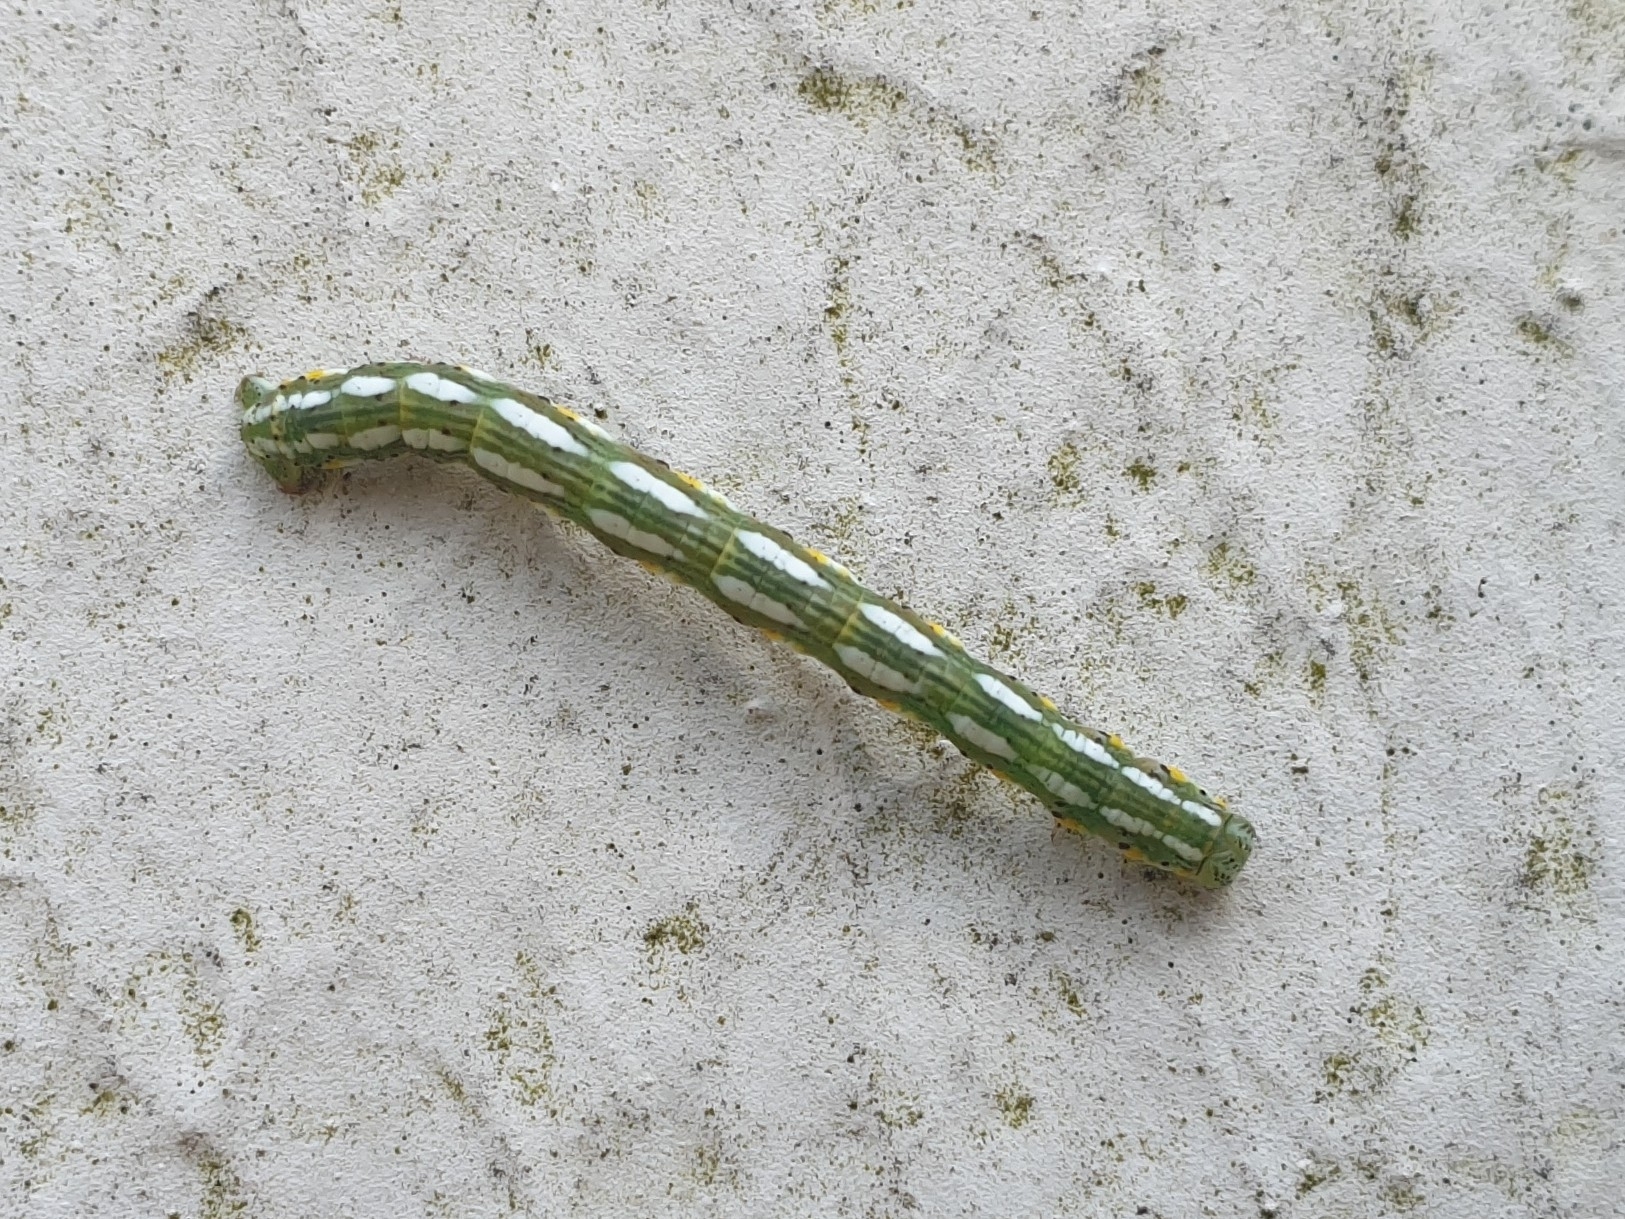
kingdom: Animalia
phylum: Arthropoda
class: Insecta
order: Lepidoptera
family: Geometridae
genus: Chiasmia
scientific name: Chiasmia aestimaria
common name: Tamarisk peacock
